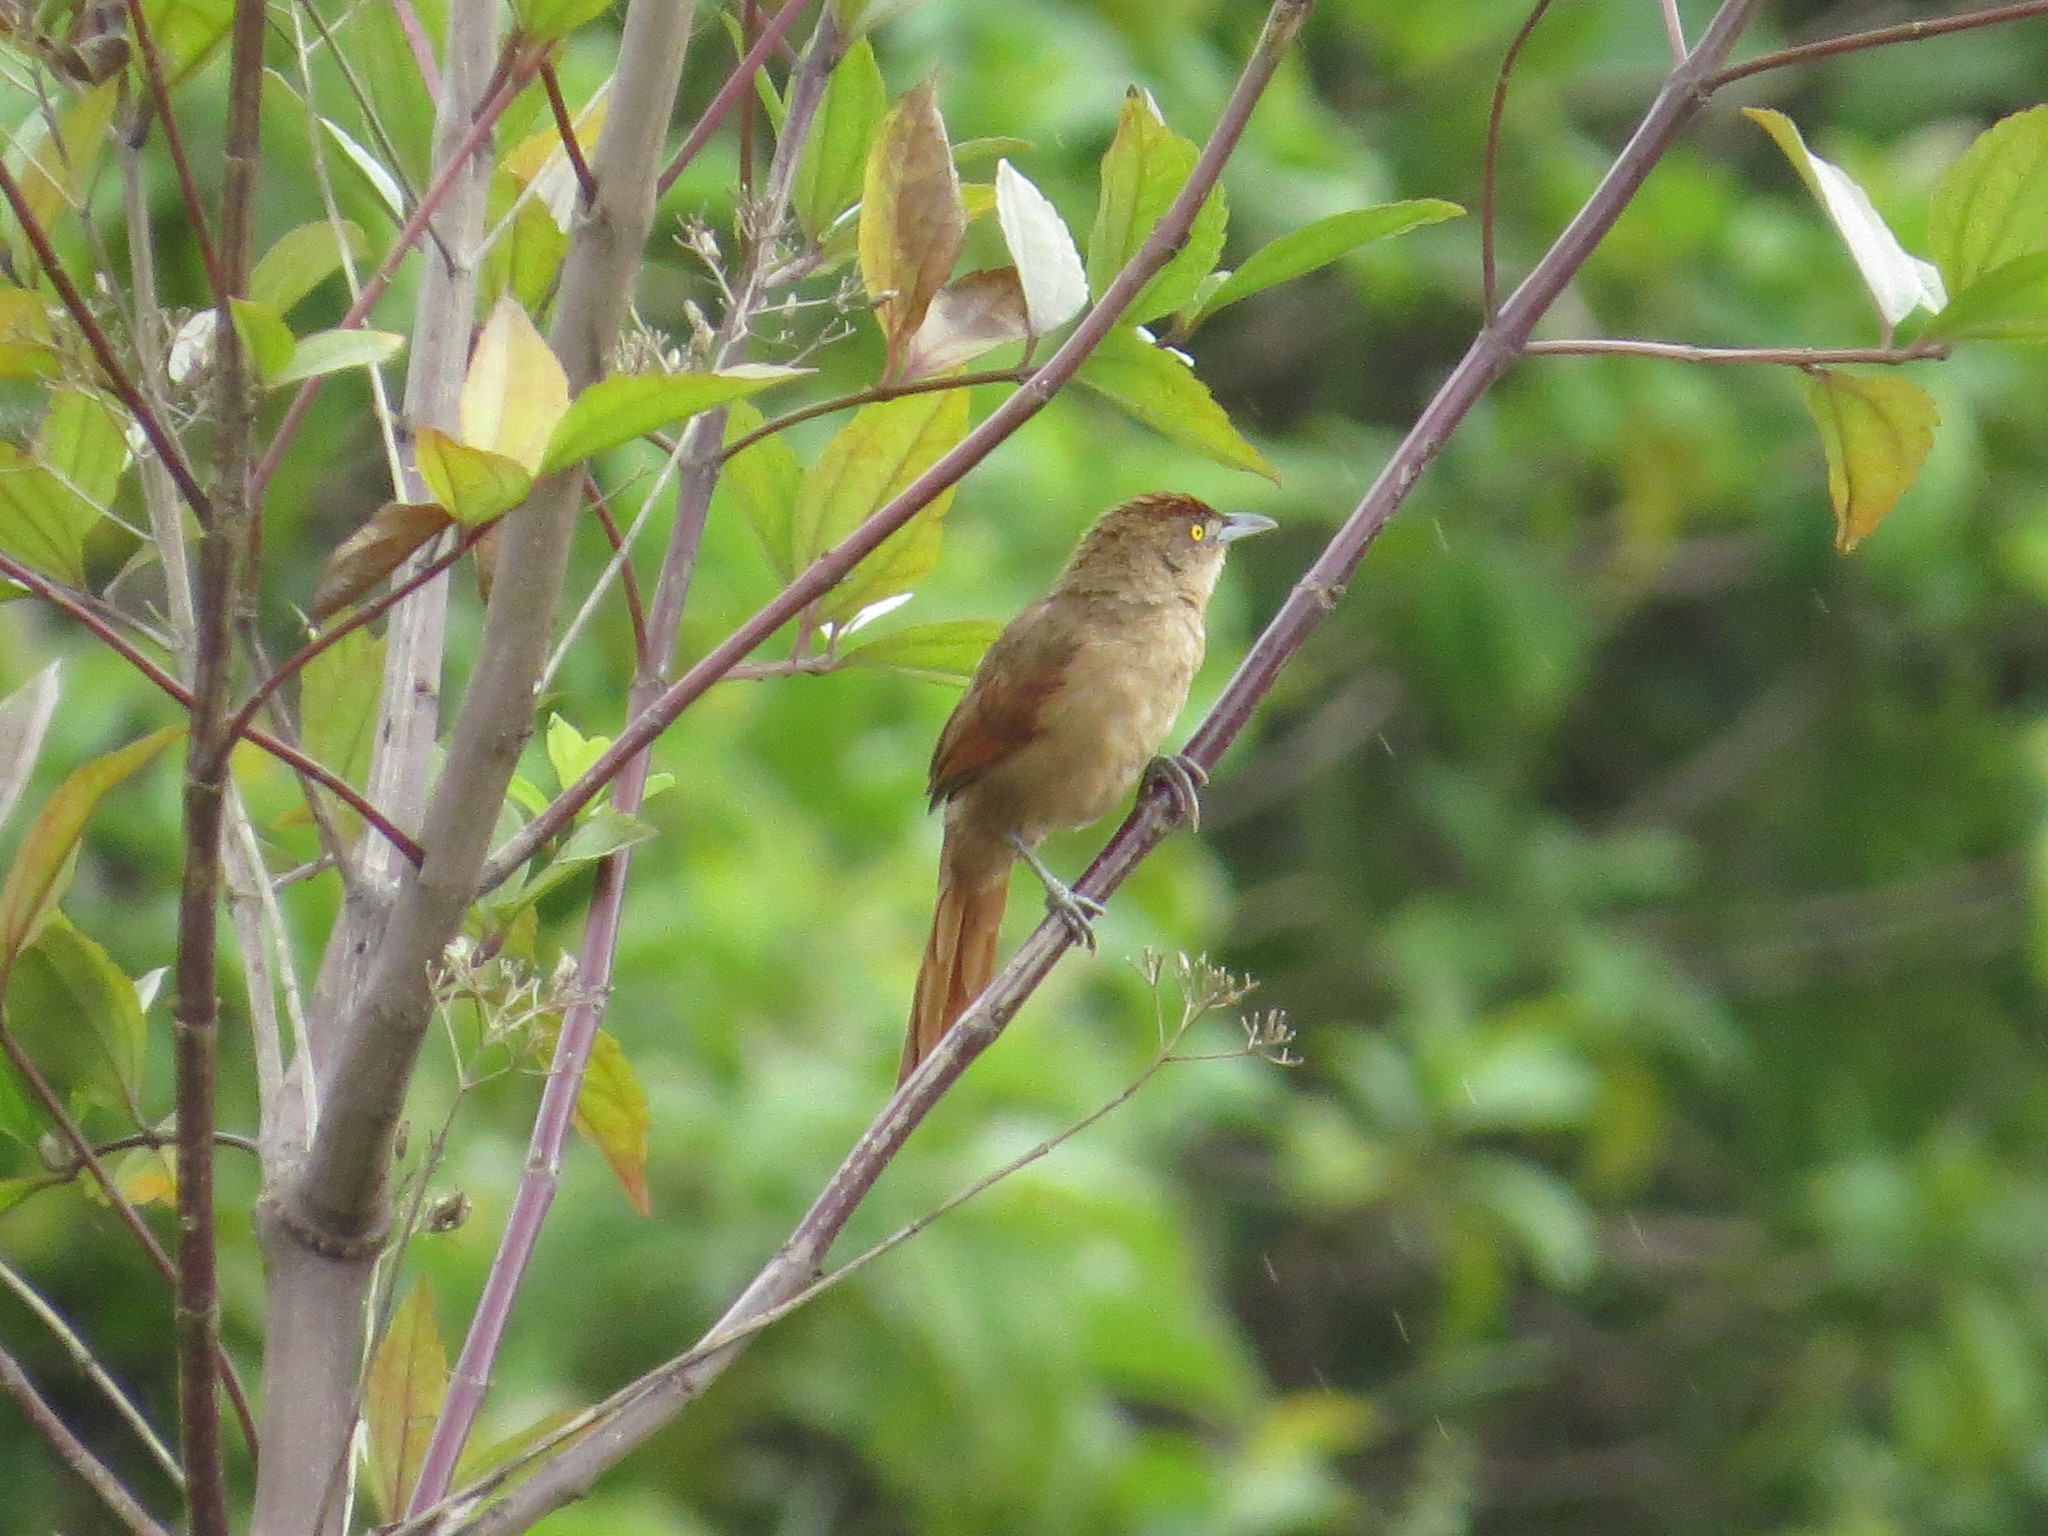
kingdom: Animalia
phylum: Chordata
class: Aves
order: Passeriformes
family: Furnariidae
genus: Phacellodomus
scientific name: Phacellodomus ruber
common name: Greater thornbird
